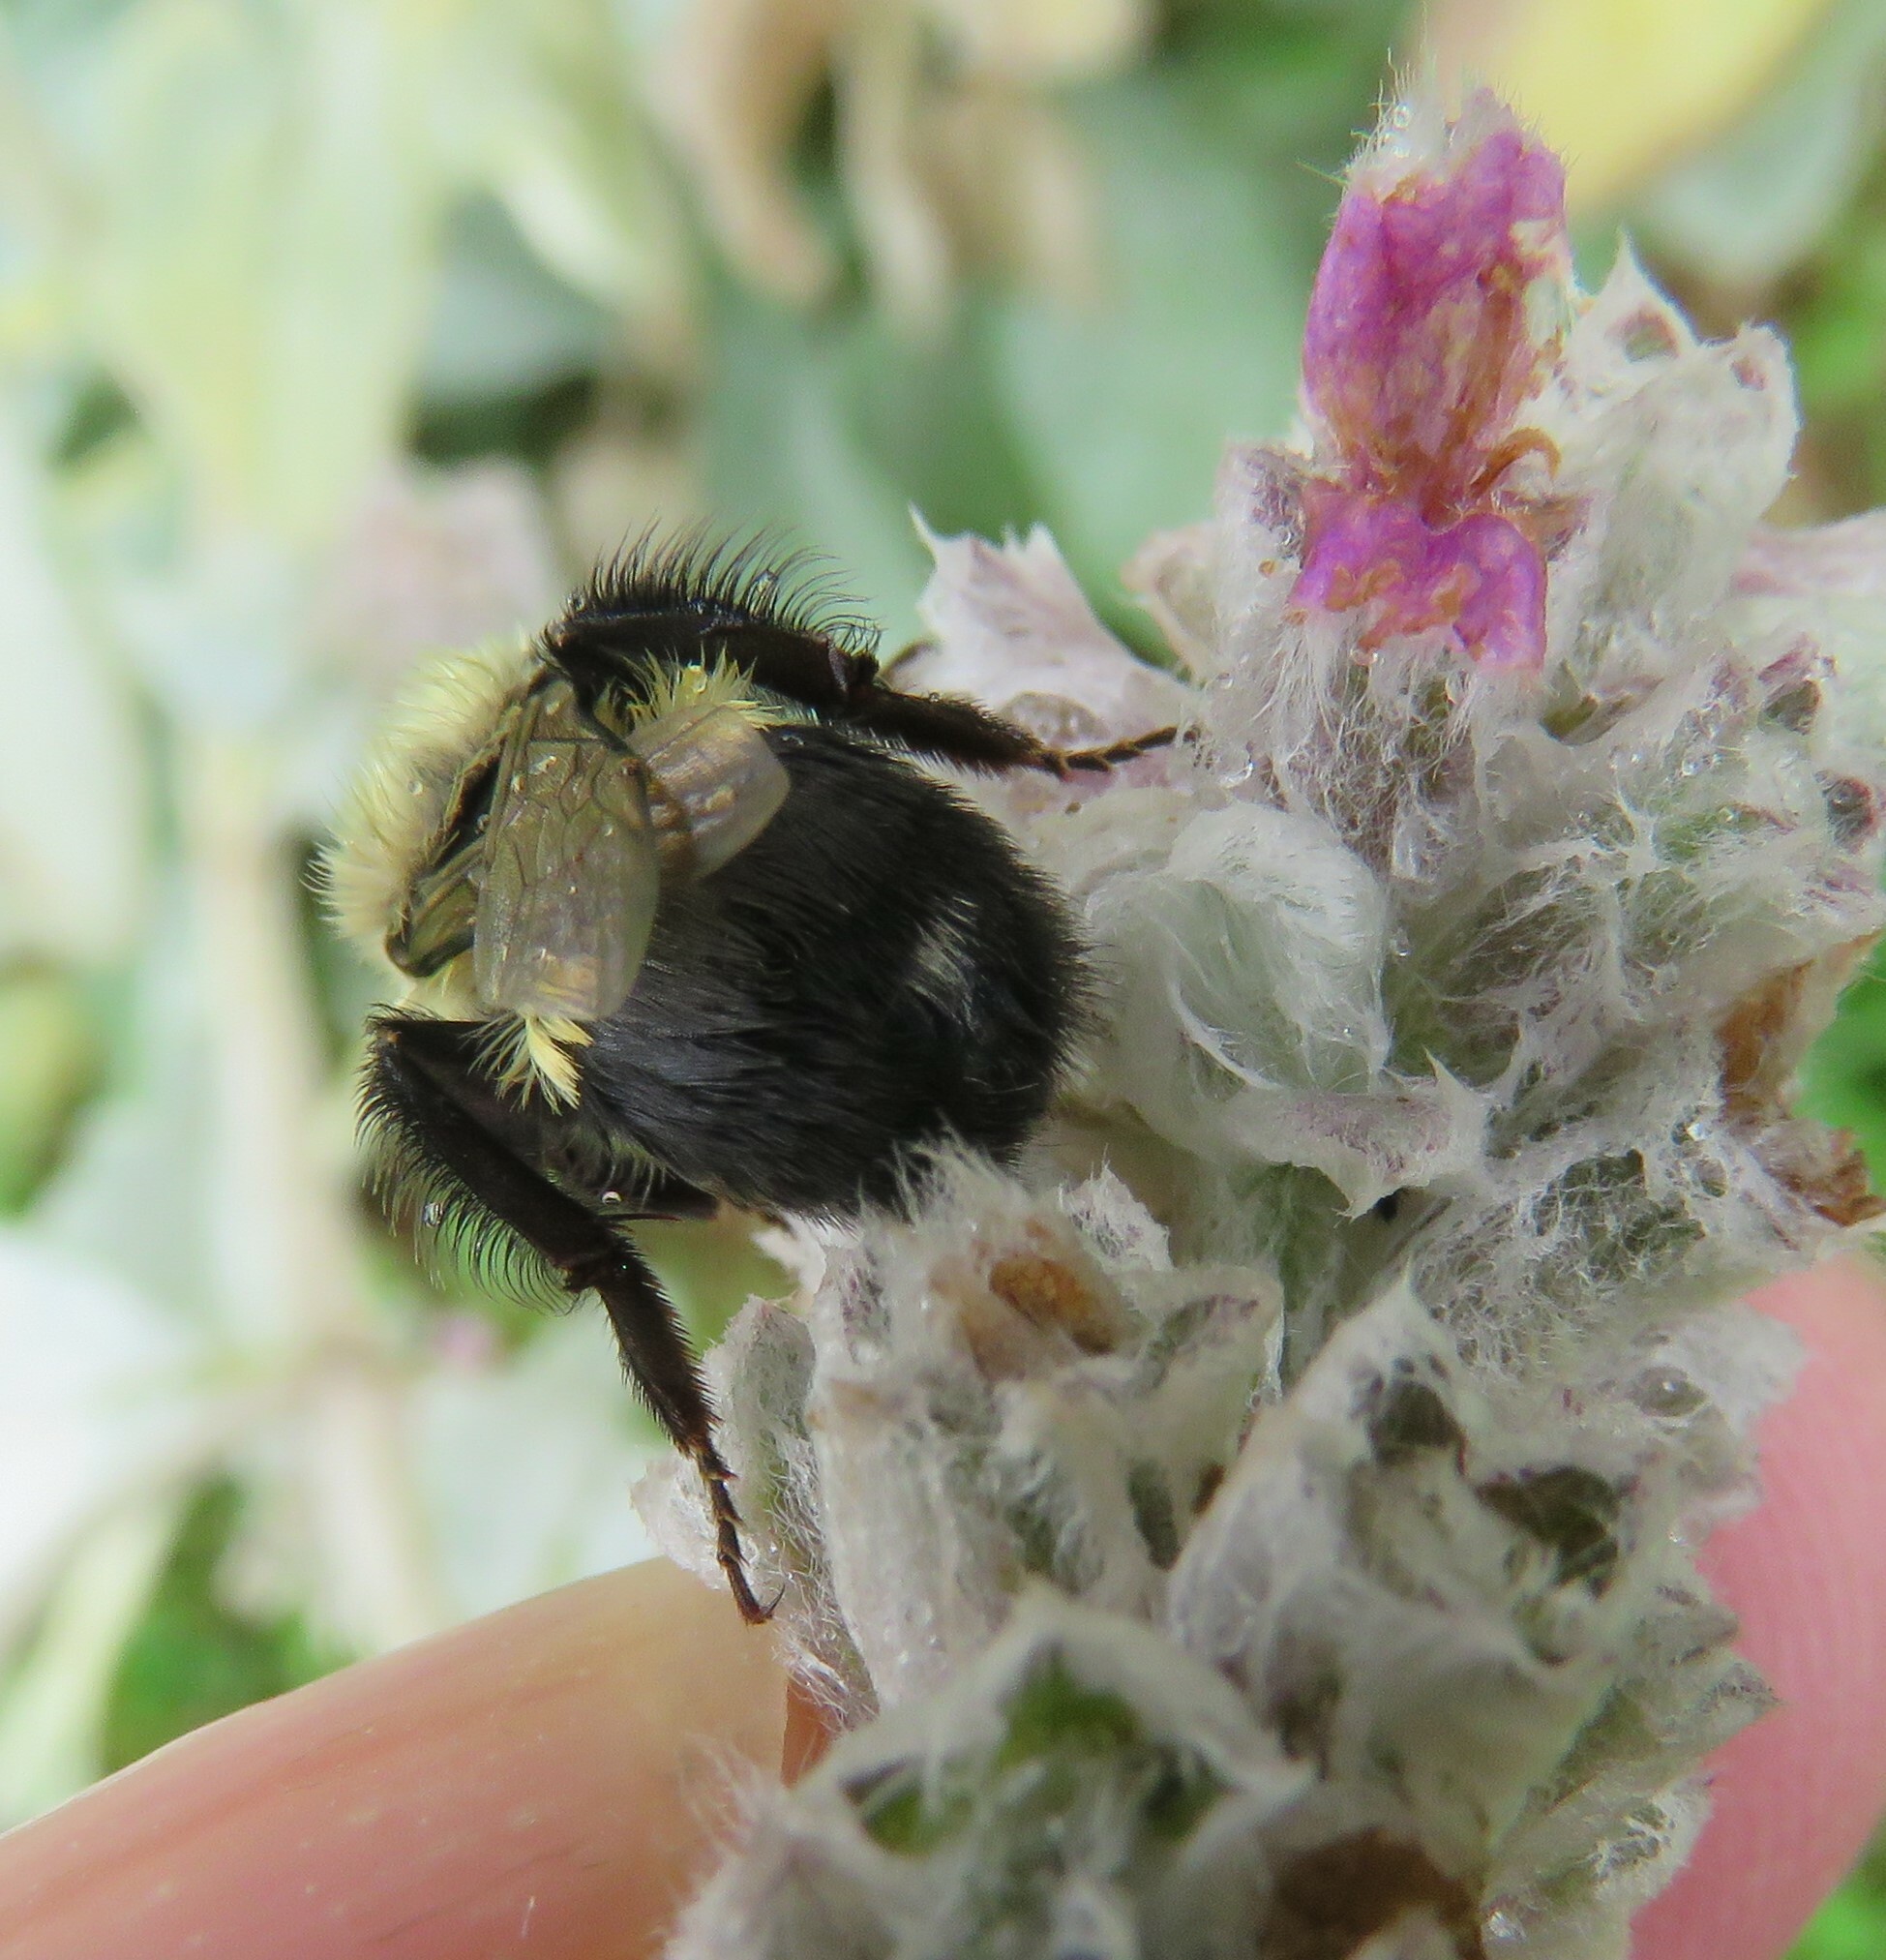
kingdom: Animalia
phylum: Arthropoda
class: Insecta
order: Hymenoptera
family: Apidae
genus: Bombus
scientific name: Bombus impatiens
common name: Common eastern bumble bee
